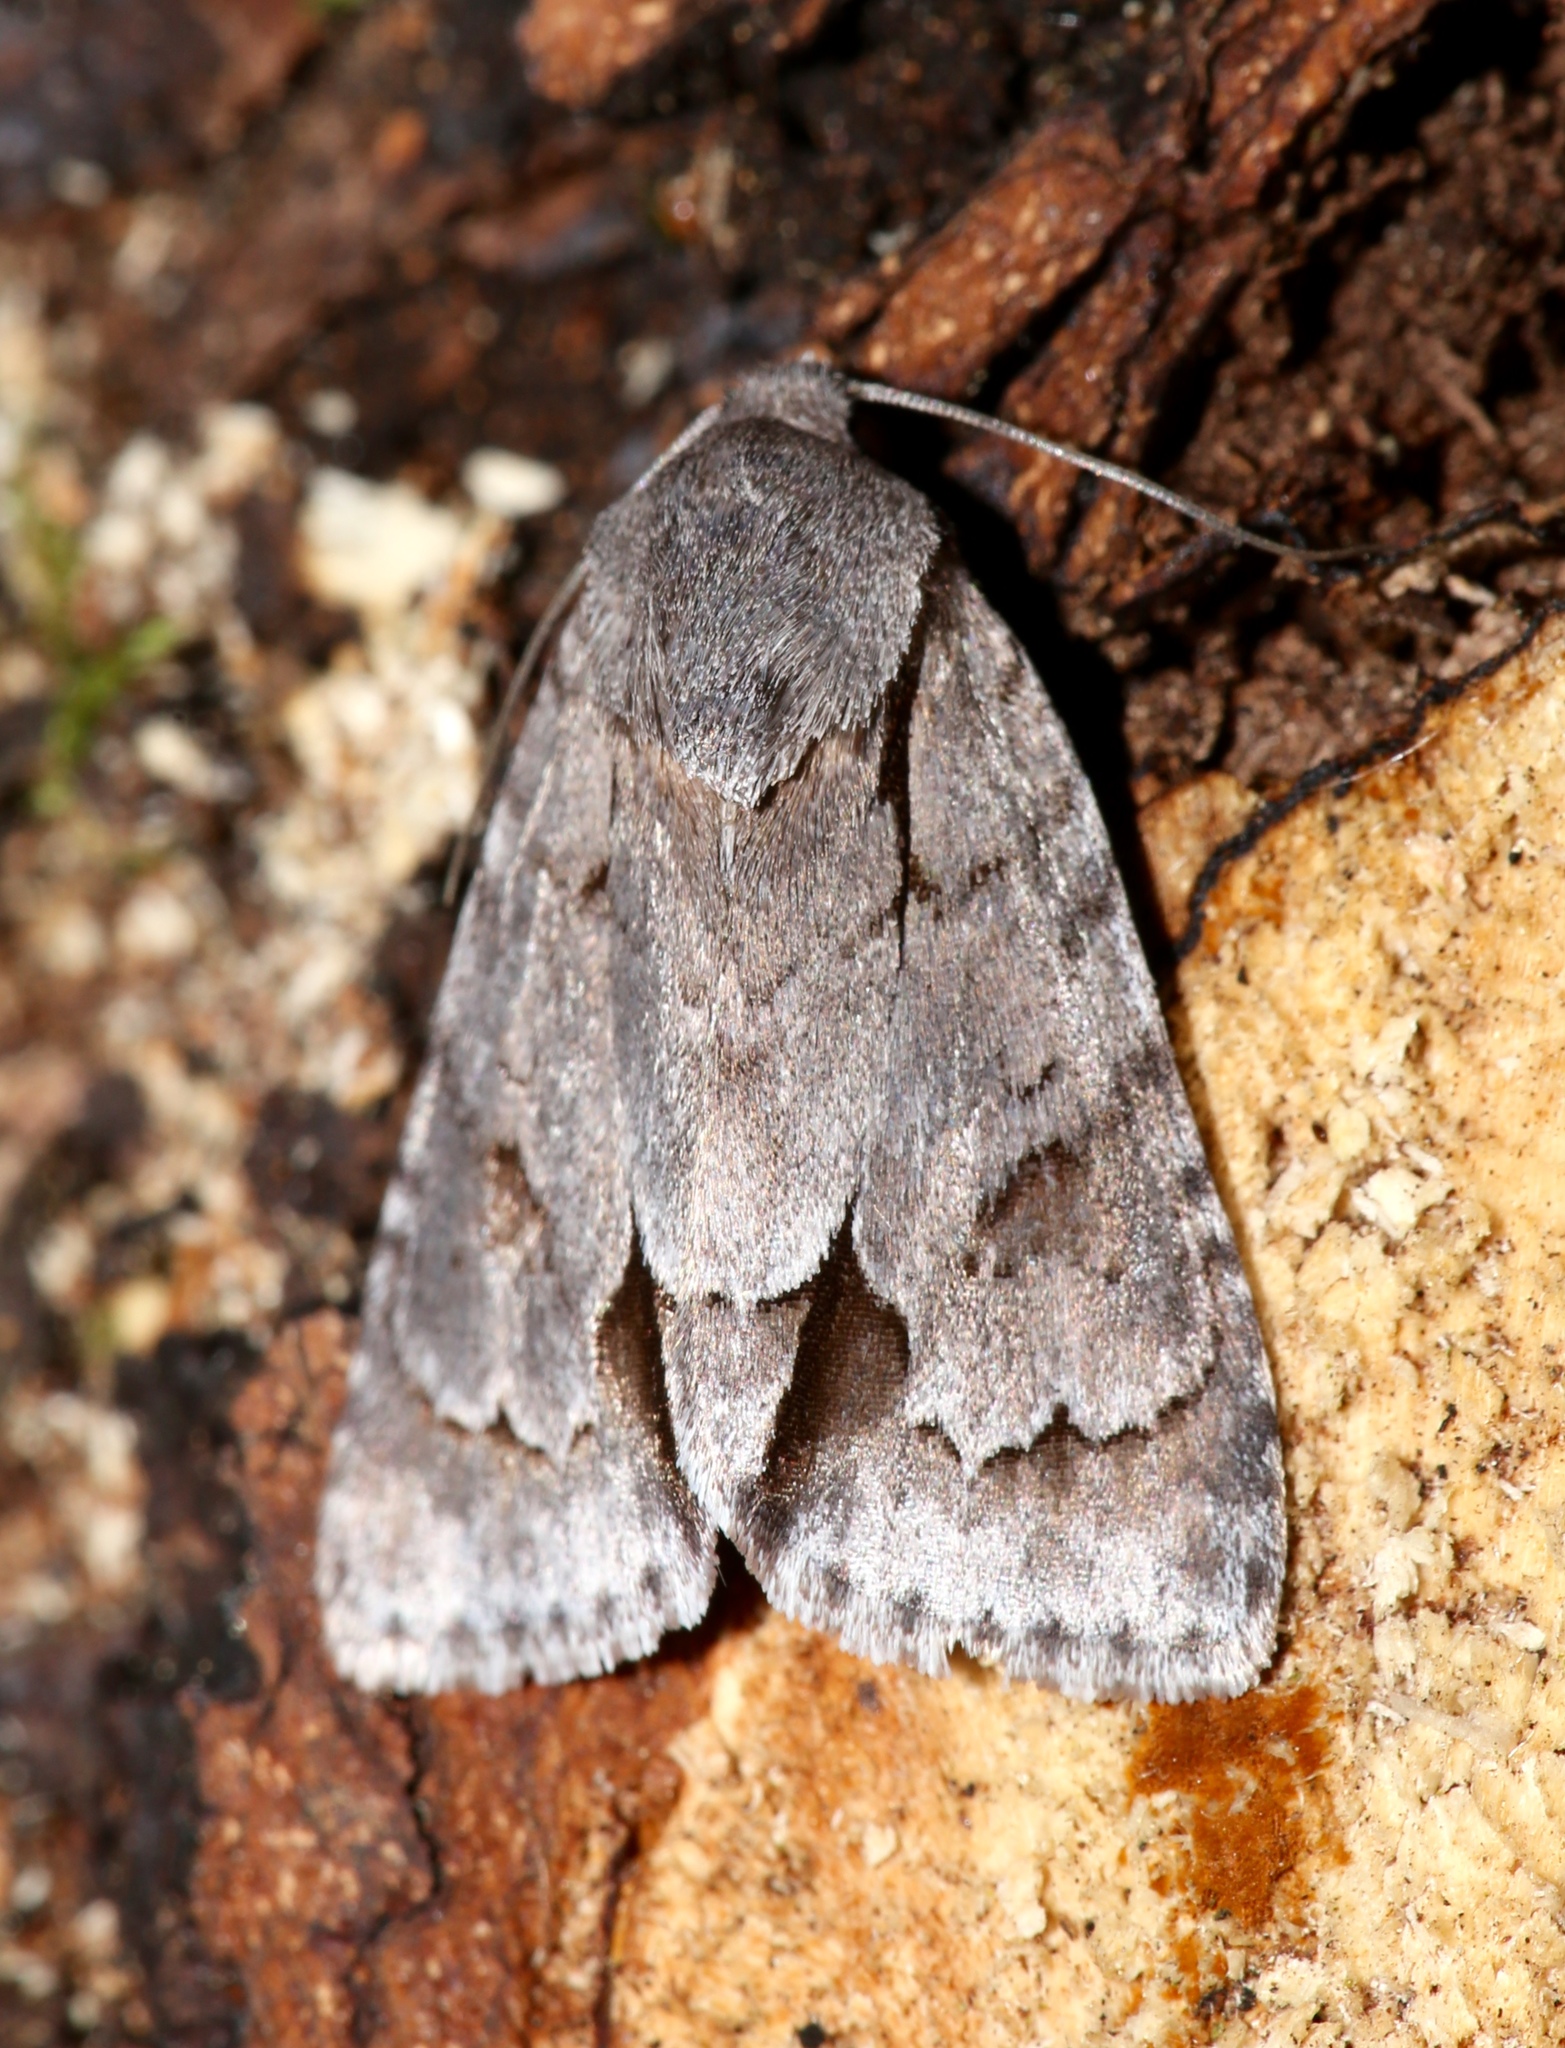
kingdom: Animalia
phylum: Arthropoda
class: Insecta
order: Lepidoptera
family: Noctuidae
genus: Acronicta
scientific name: Acronicta tritona
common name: Triton dagger
